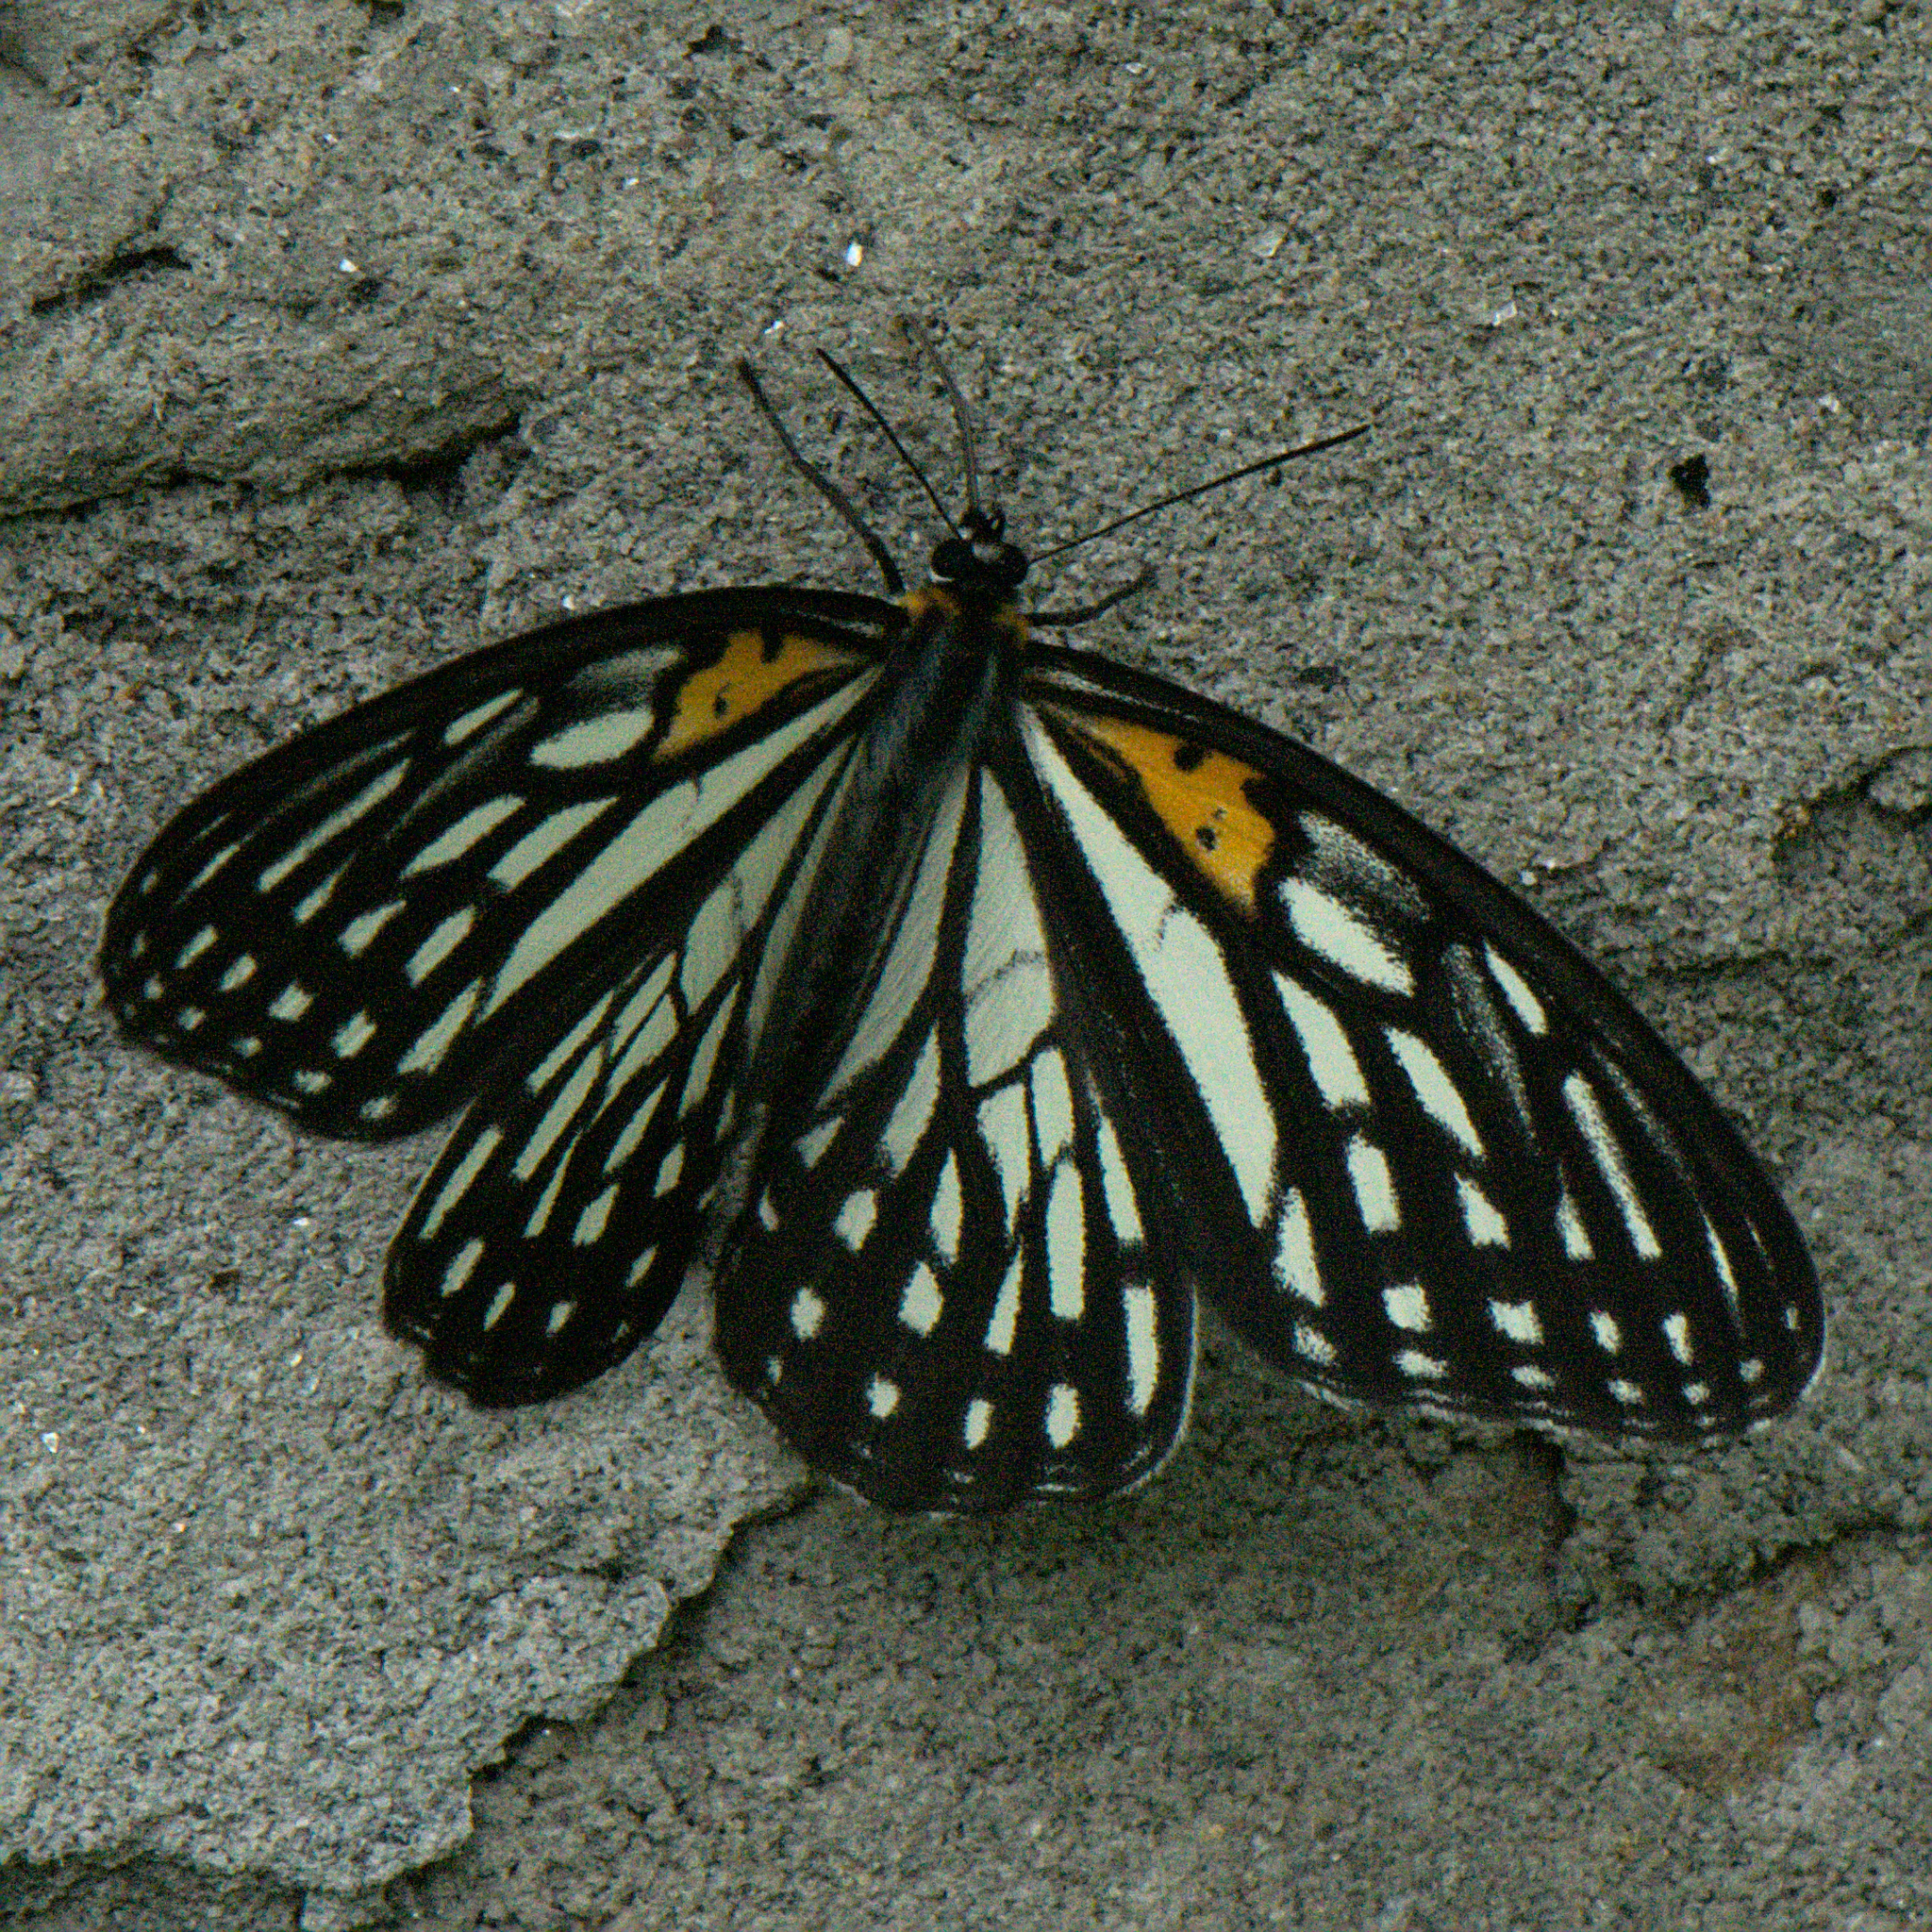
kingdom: Animalia
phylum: Arthropoda
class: Insecta
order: Lepidoptera
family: Nymphalidae
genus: Orinoma
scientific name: Orinoma damaris
